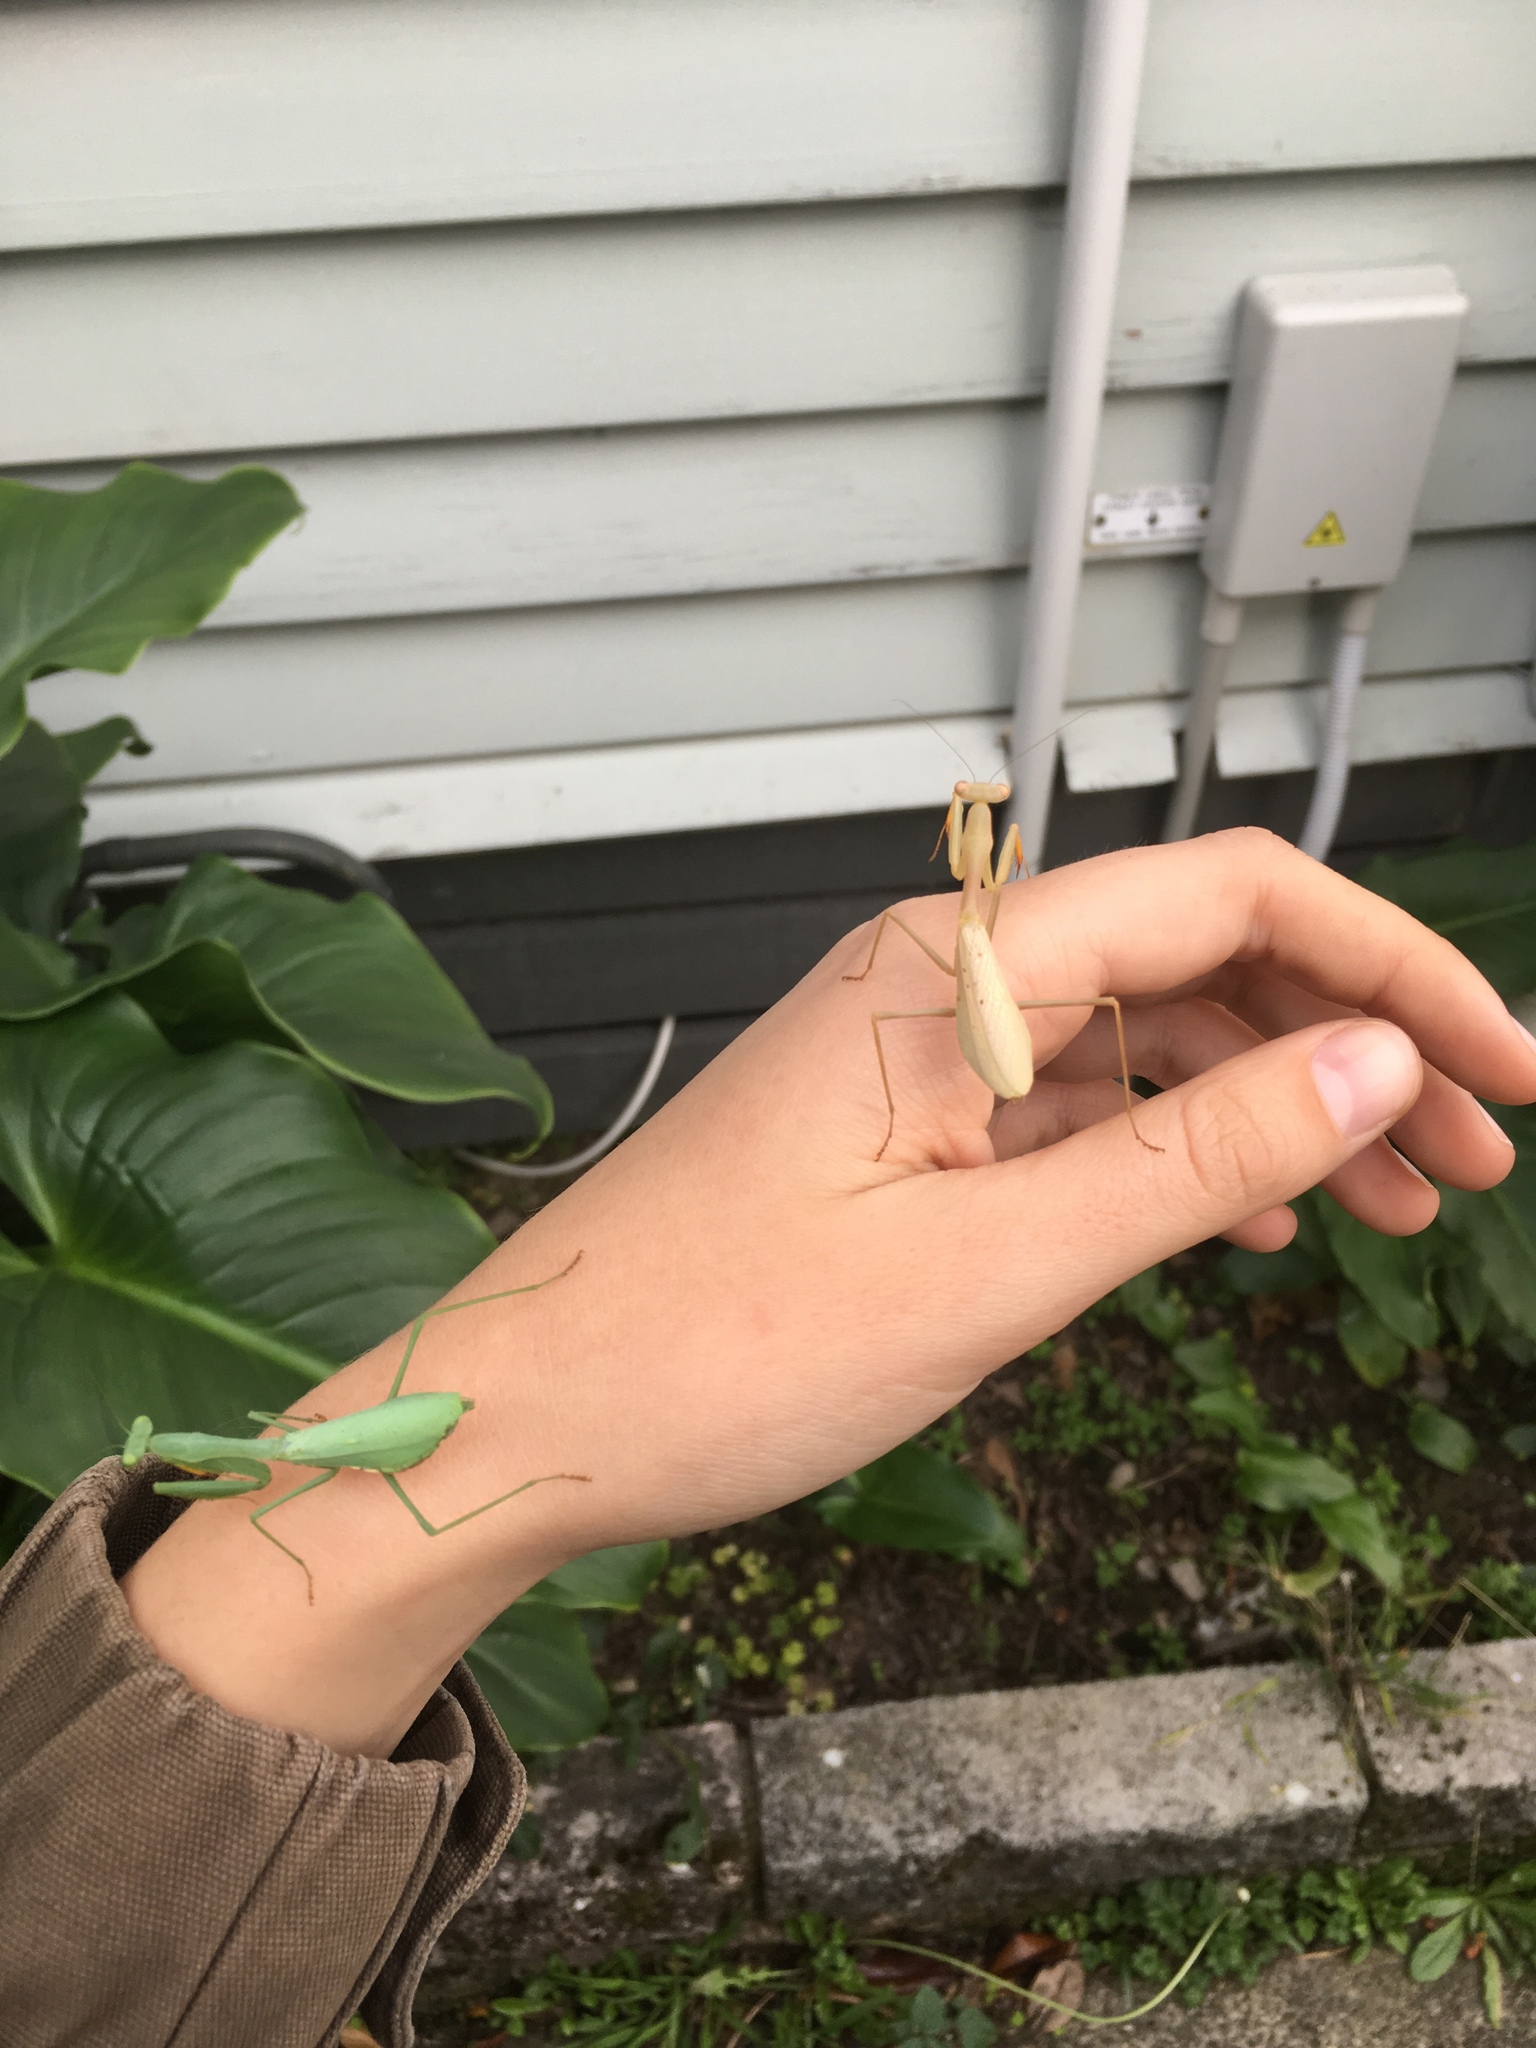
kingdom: Animalia
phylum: Arthropoda
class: Insecta
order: Mantodea
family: Miomantidae
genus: Miomantis
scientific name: Miomantis caffra
